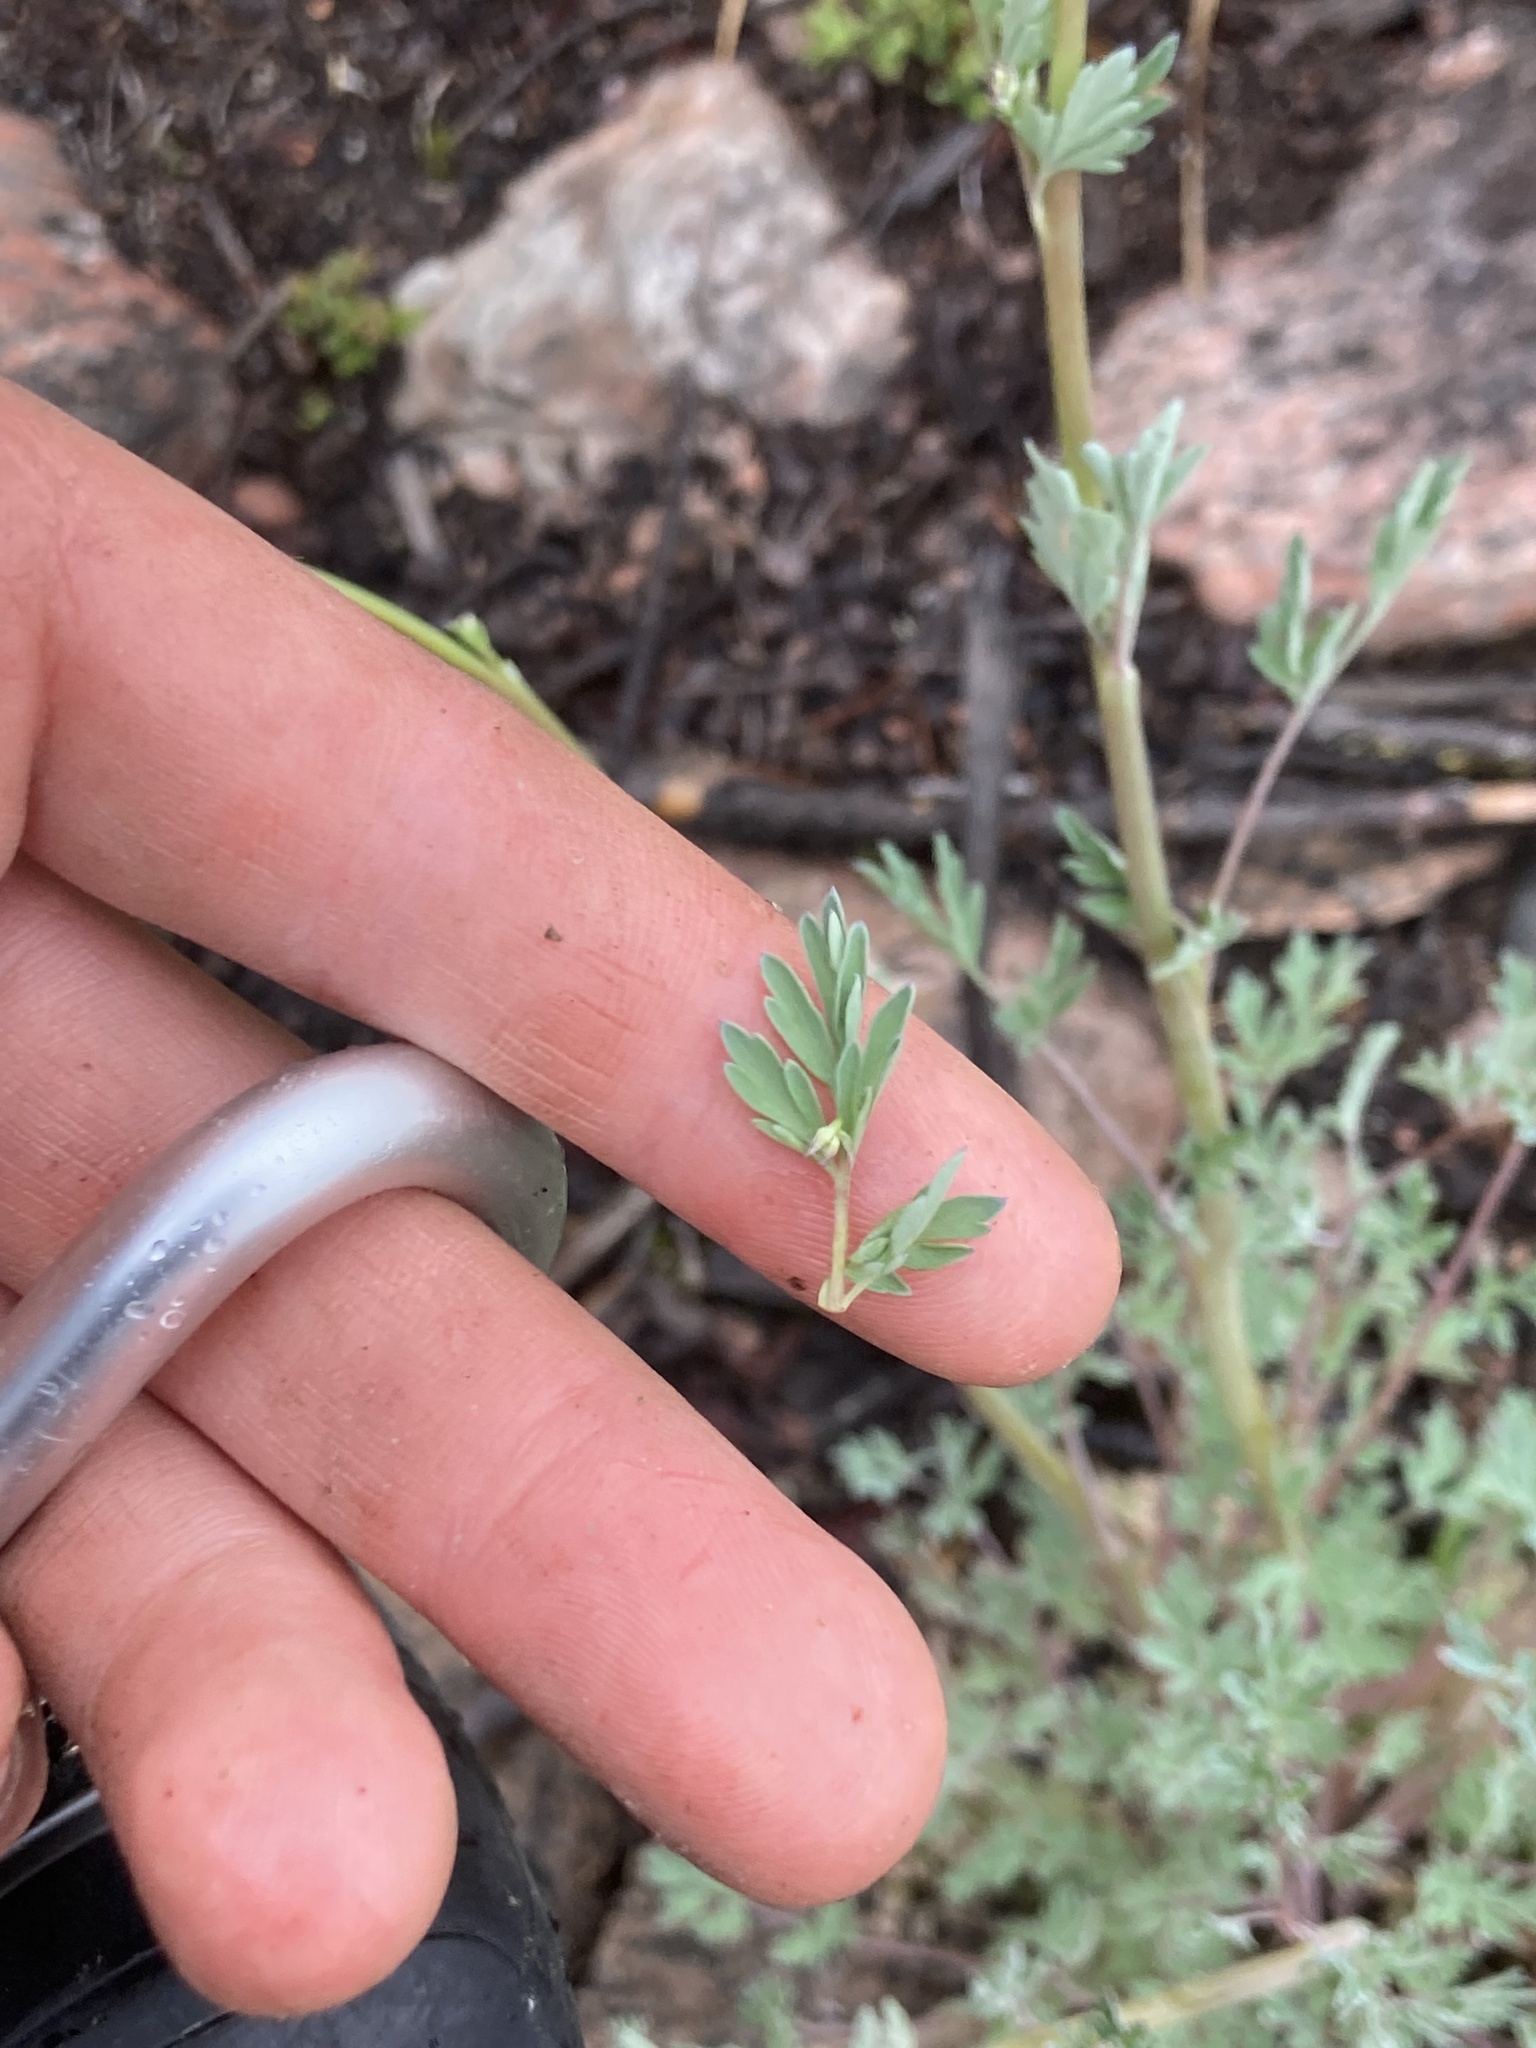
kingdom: Plantae
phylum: Tracheophyta
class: Magnoliopsida
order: Ranunculales
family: Papaveraceae
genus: Capnoides
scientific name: Capnoides sempervirens
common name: Rock harlequin
